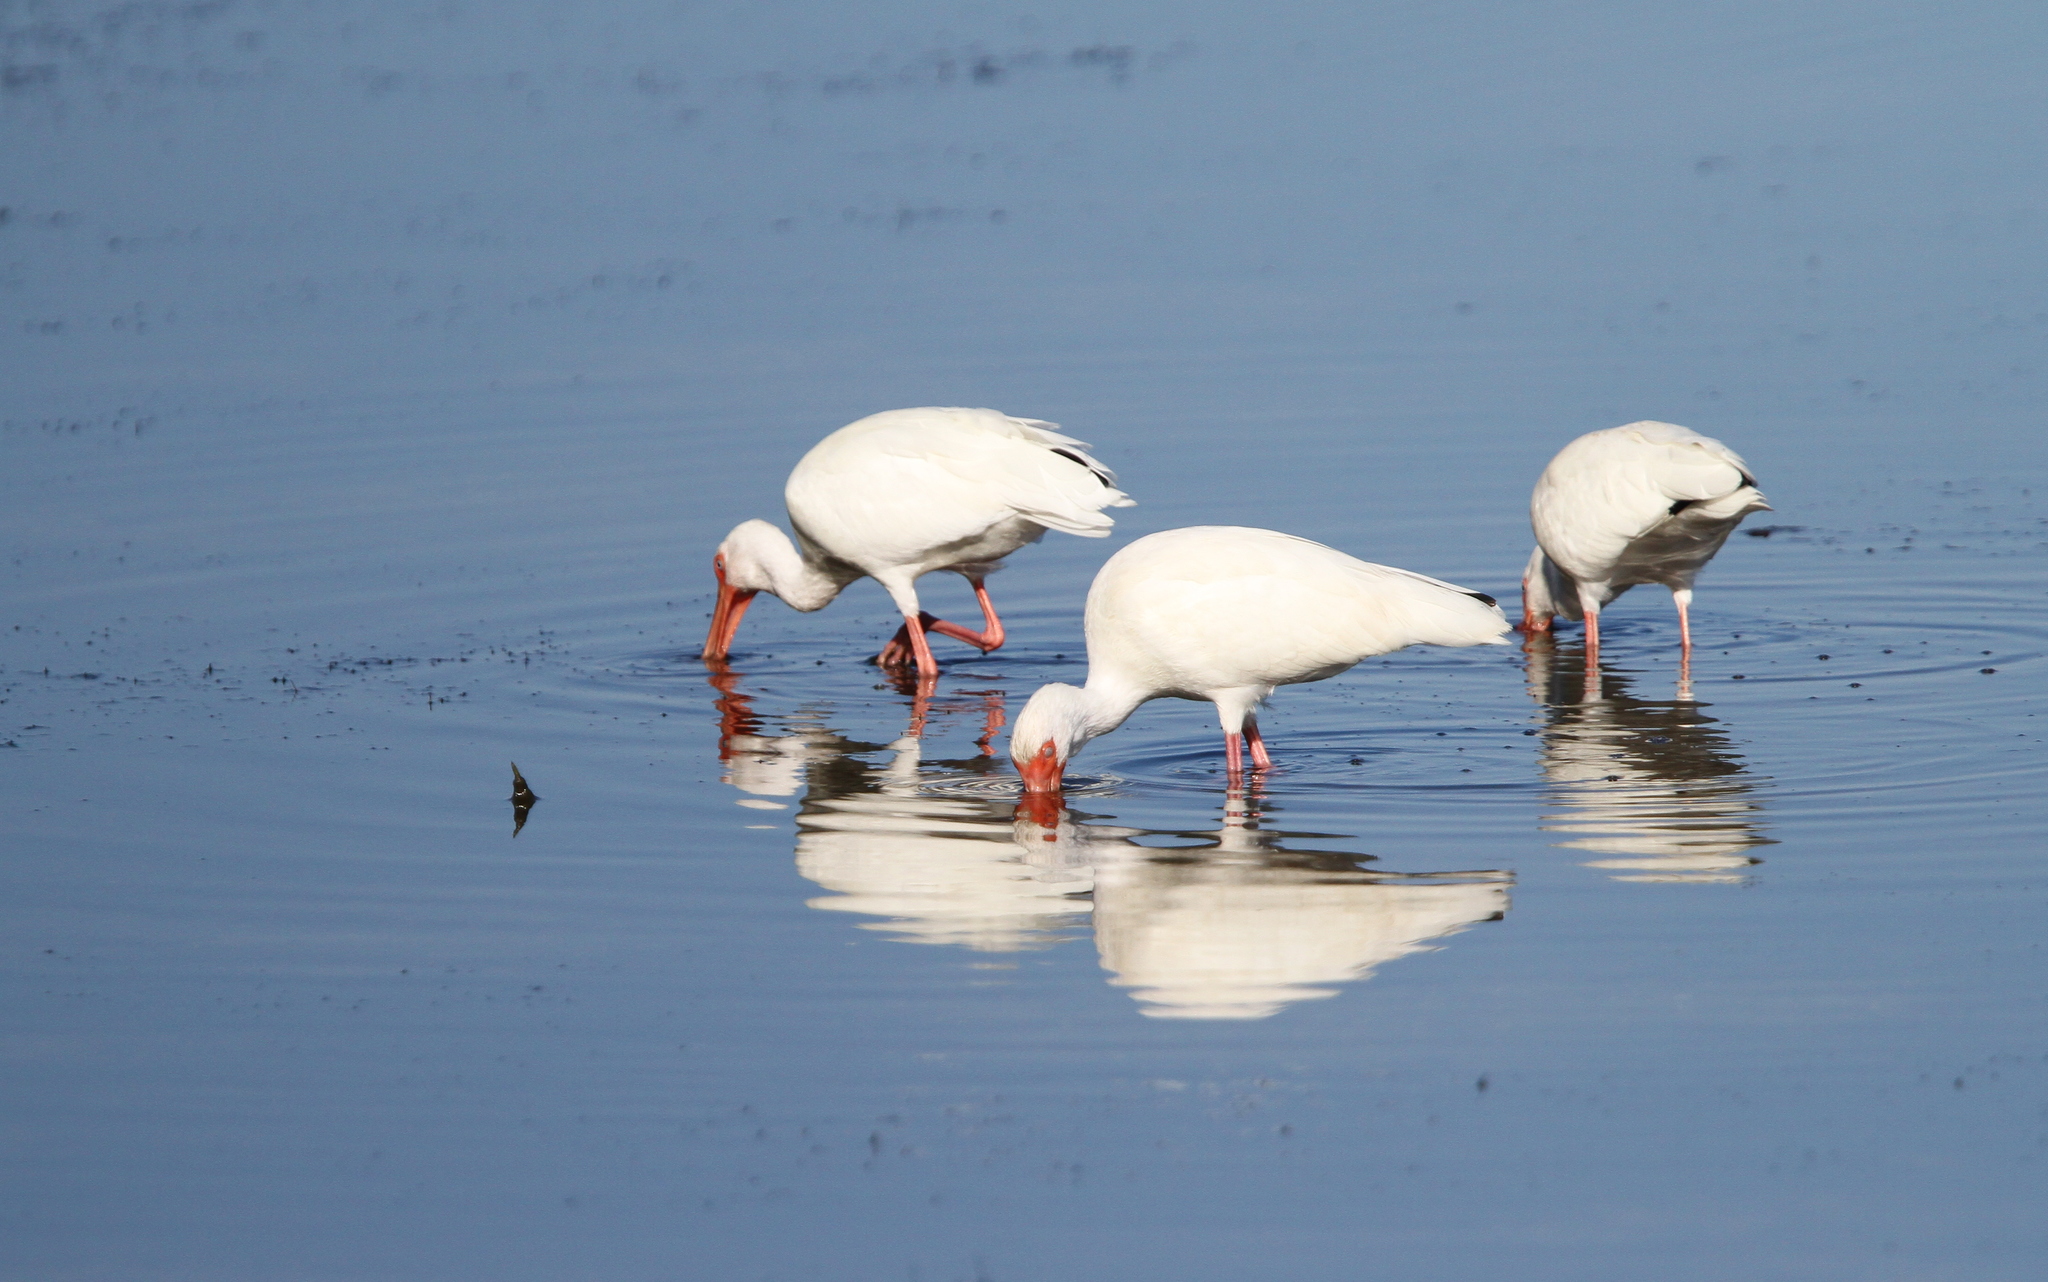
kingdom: Animalia
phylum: Chordata
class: Aves
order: Pelecaniformes
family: Threskiornithidae
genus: Eudocimus
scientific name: Eudocimus albus
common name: White ibis
